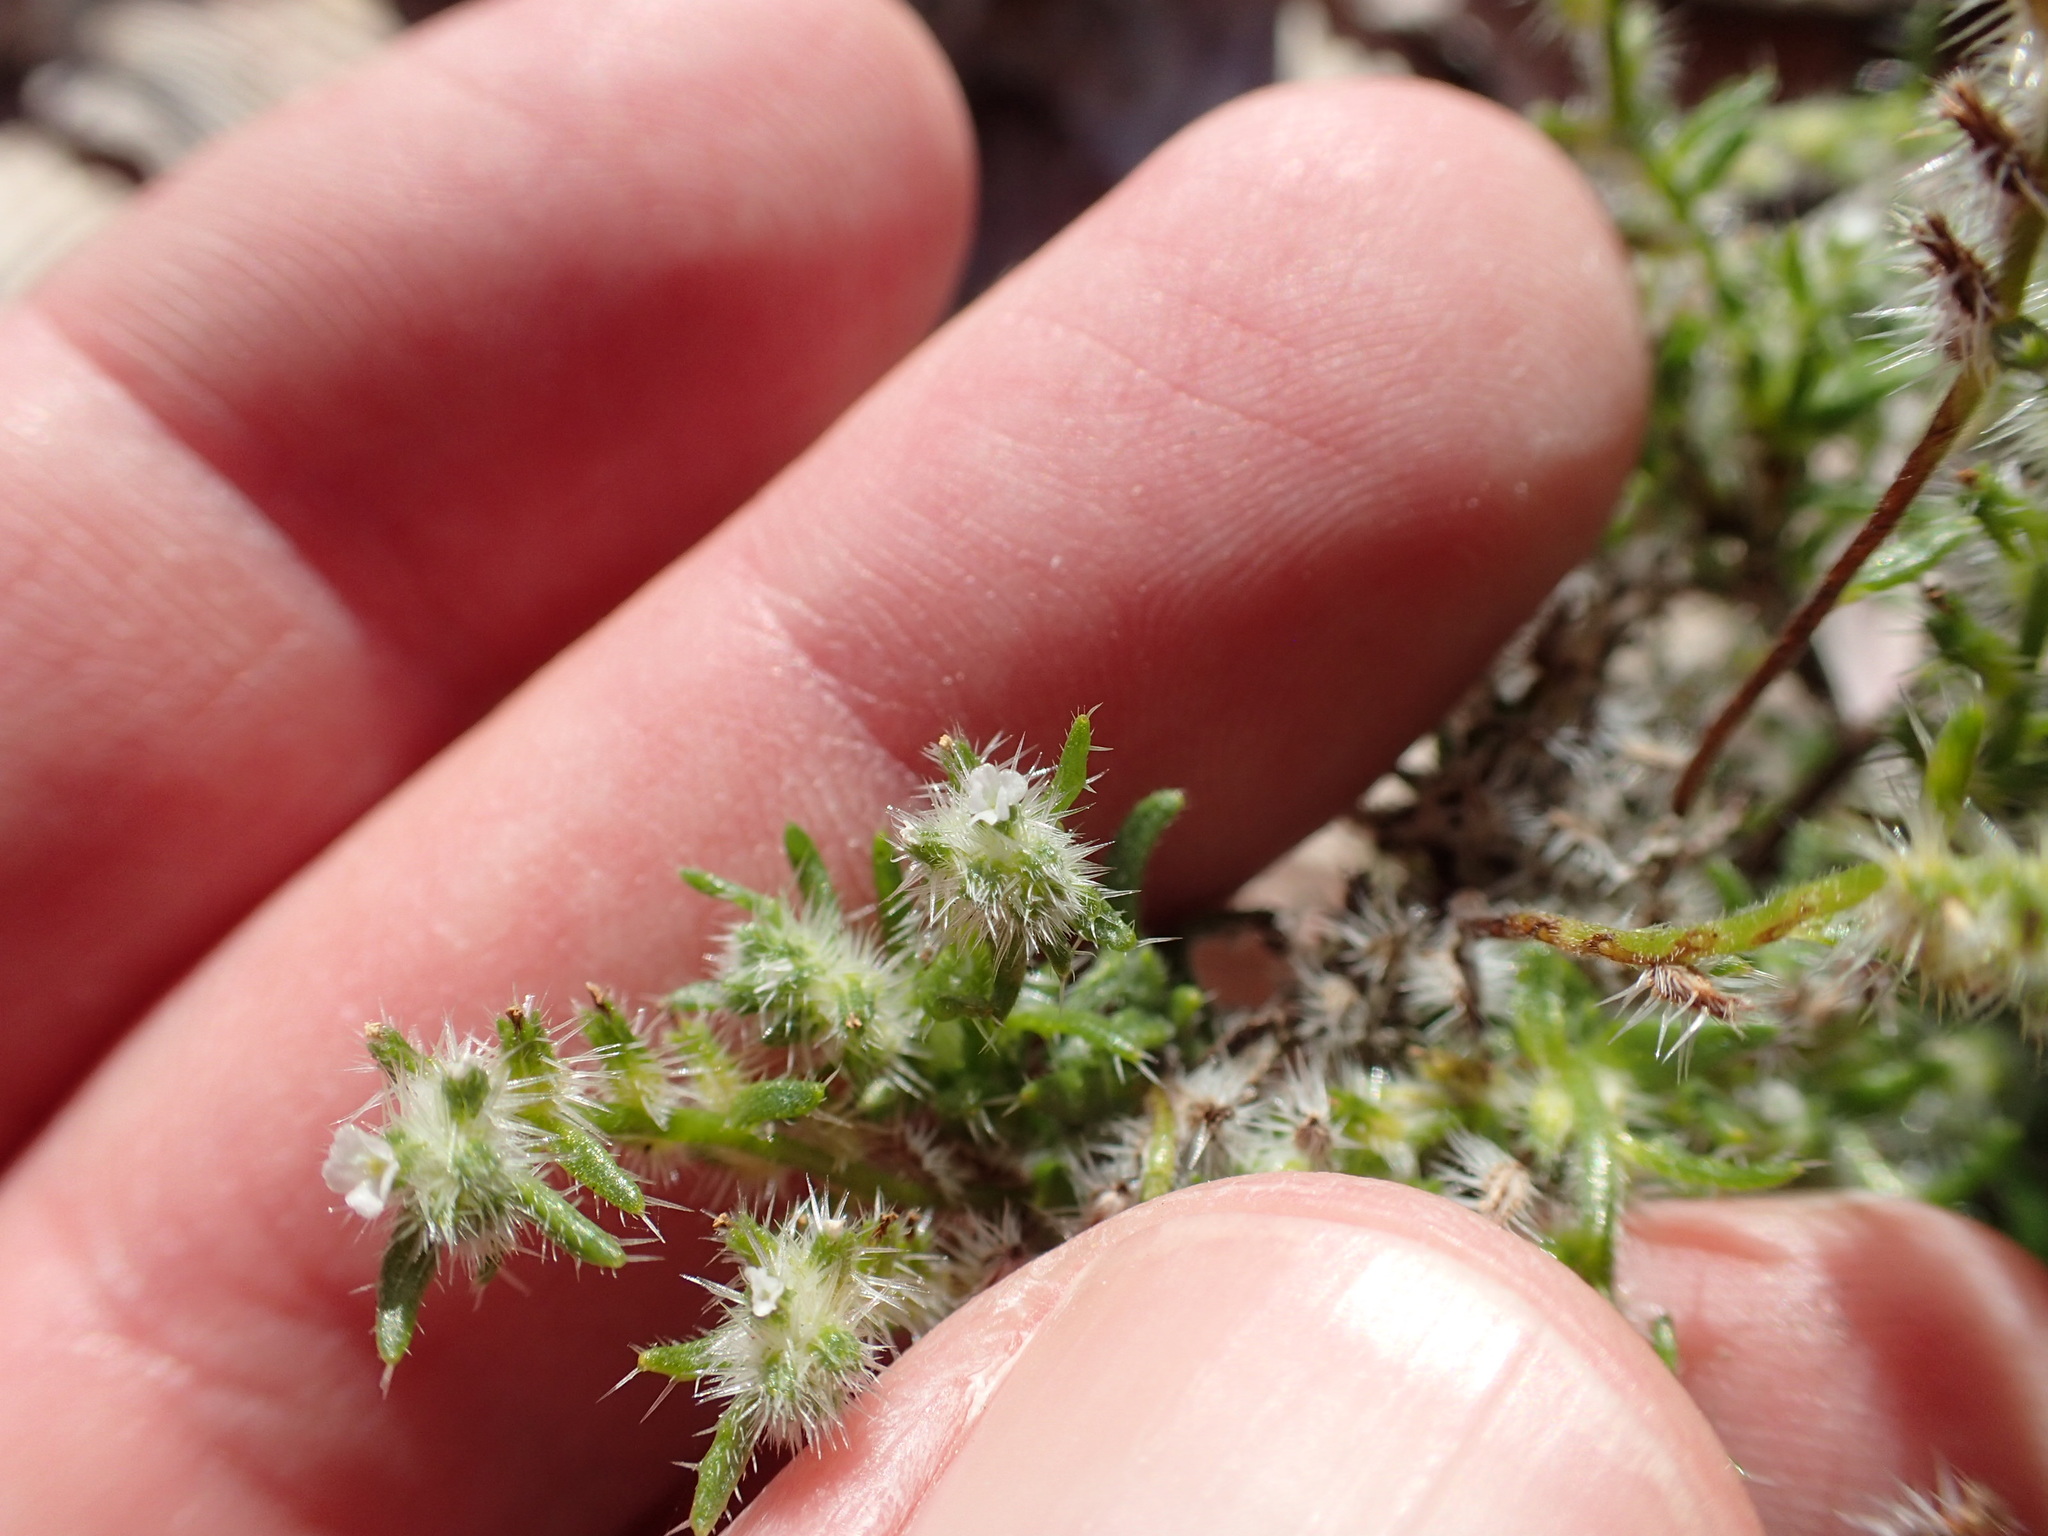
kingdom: Plantae
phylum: Tracheophyta
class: Magnoliopsida
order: Boraginales
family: Boraginaceae
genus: Cryptantha
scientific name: Cryptantha maritima
